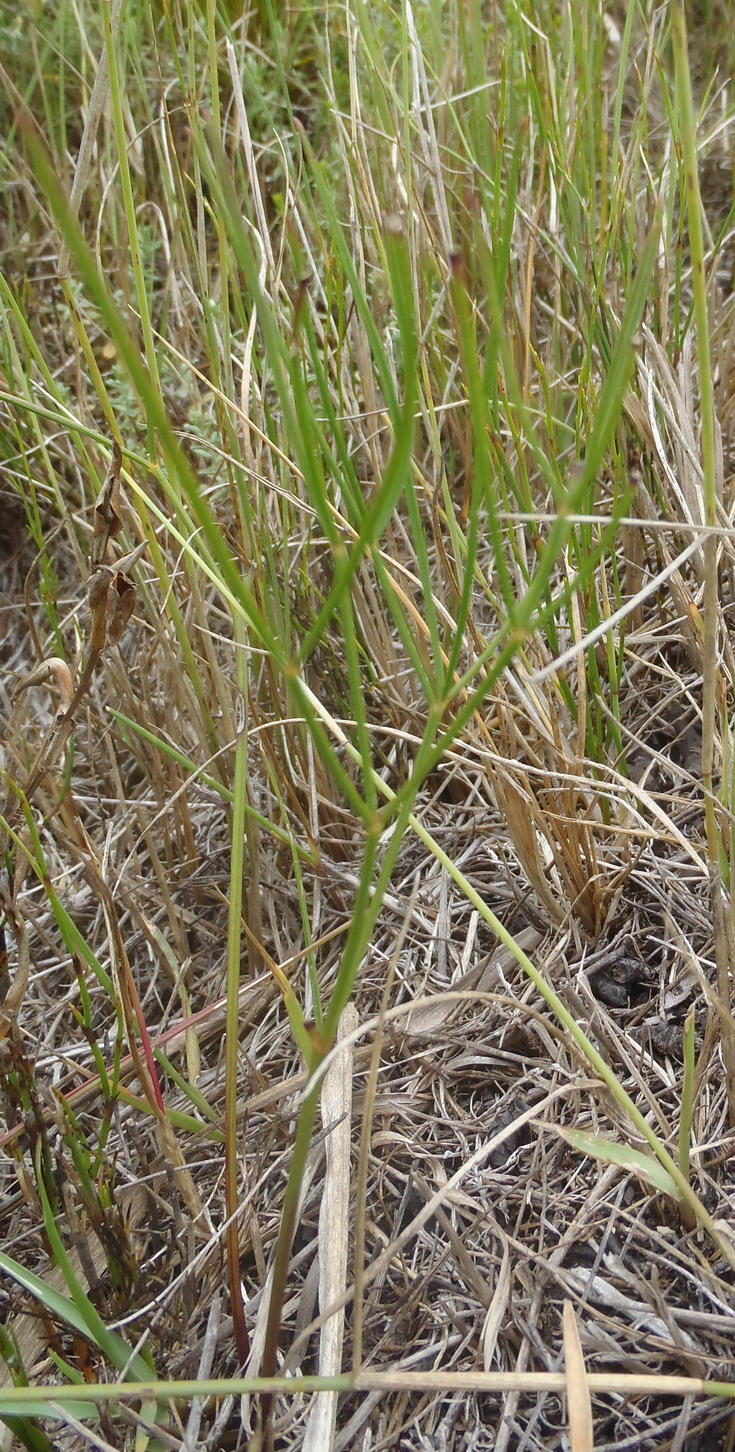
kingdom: Plantae
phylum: Tracheophyta
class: Magnoliopsida
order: Apiales
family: Apiaceae
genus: Nanobubon
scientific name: Nanobubon hypogaeum
